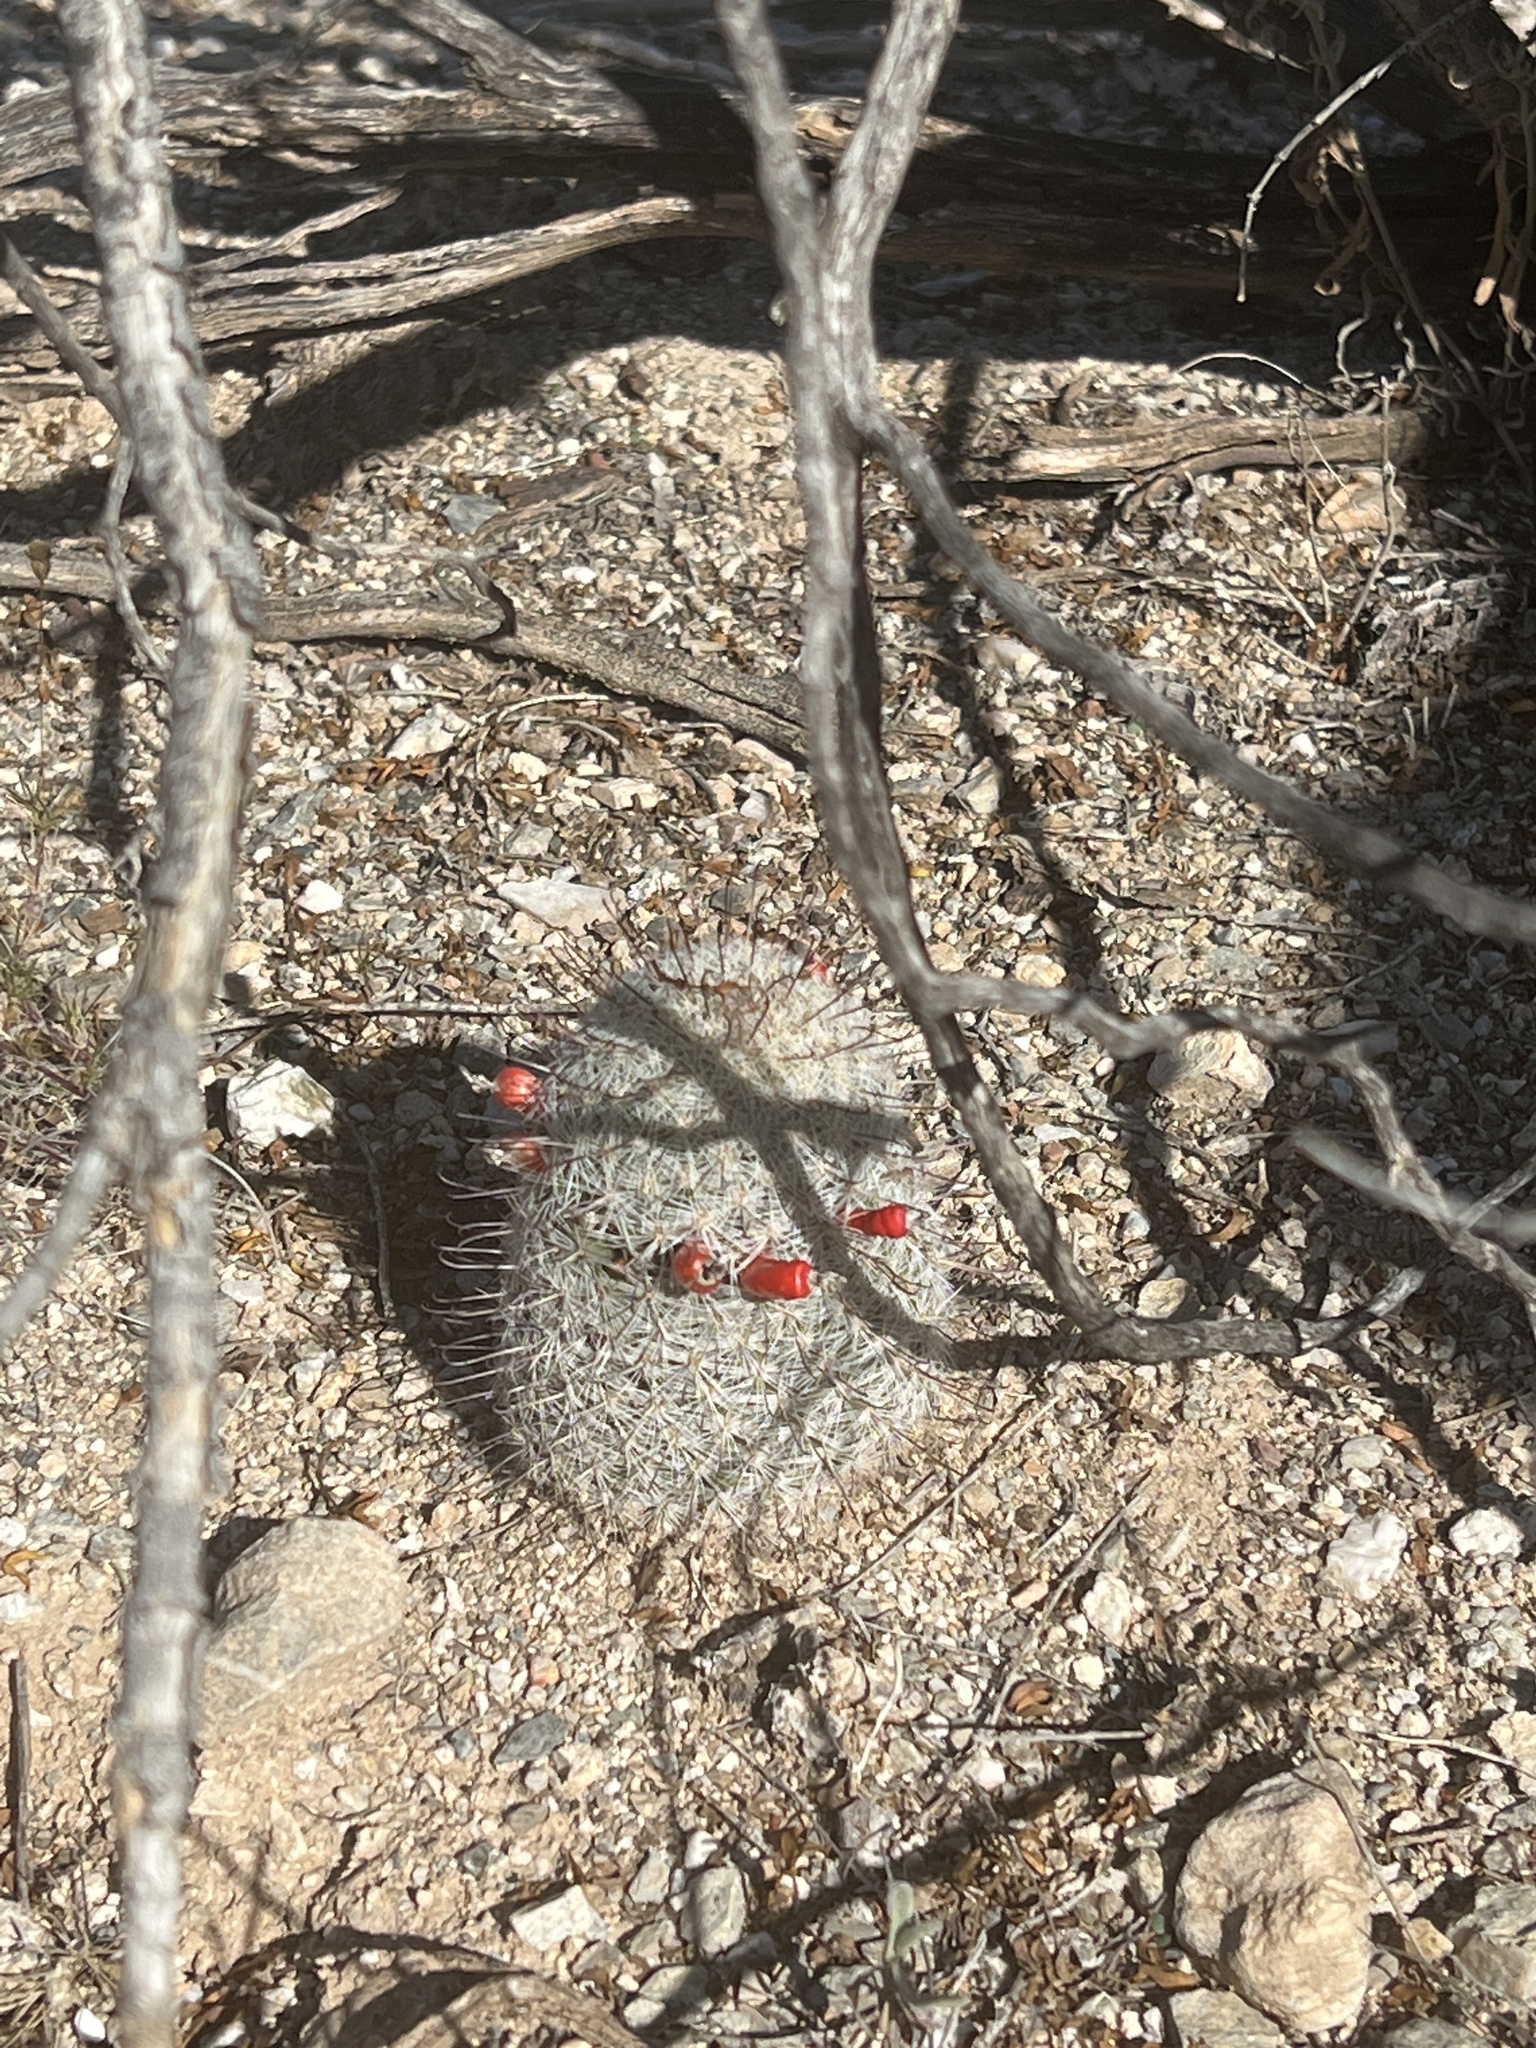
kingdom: Plantae
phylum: Tracheophyta
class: Magnoliopsida
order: Caryophyllales
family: Cactaceae
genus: Cochemiea
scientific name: Cochemiea grahamii
